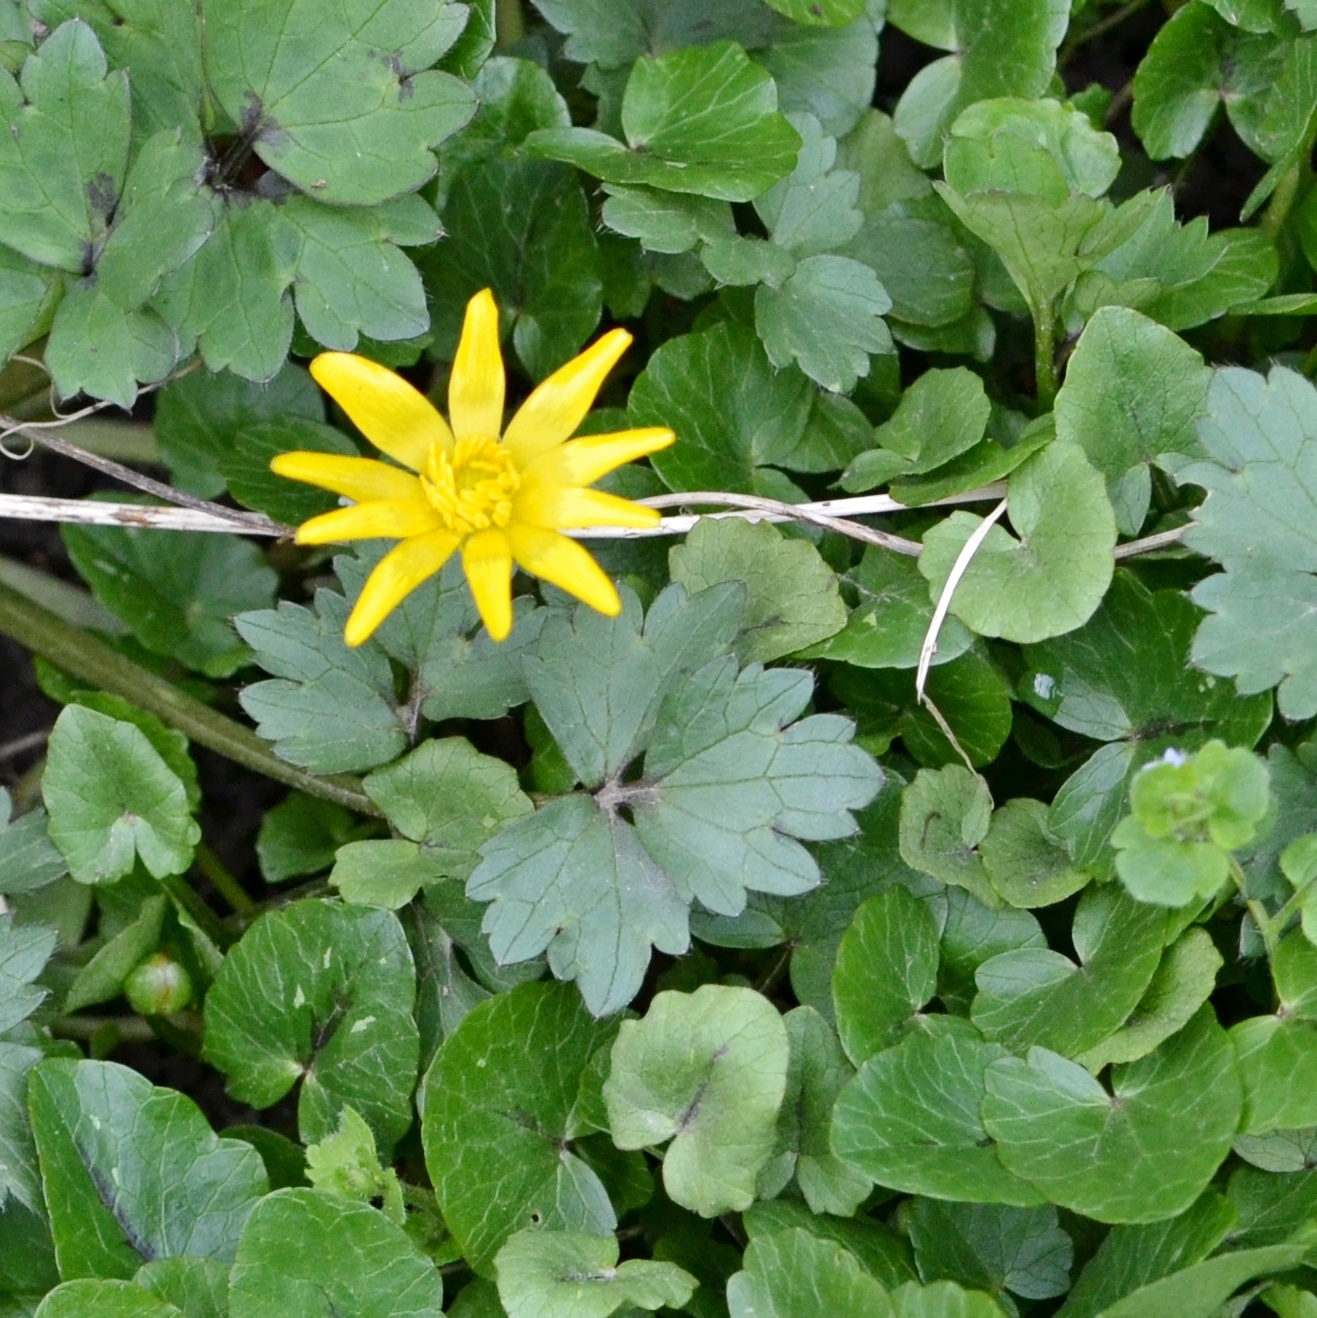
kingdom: Plantae
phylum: Tracheophyta
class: Magnoliopsida
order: Ranunculales
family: Ranunculaceae
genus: Ficaria
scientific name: Ficaria verna
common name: Lesser celandine
